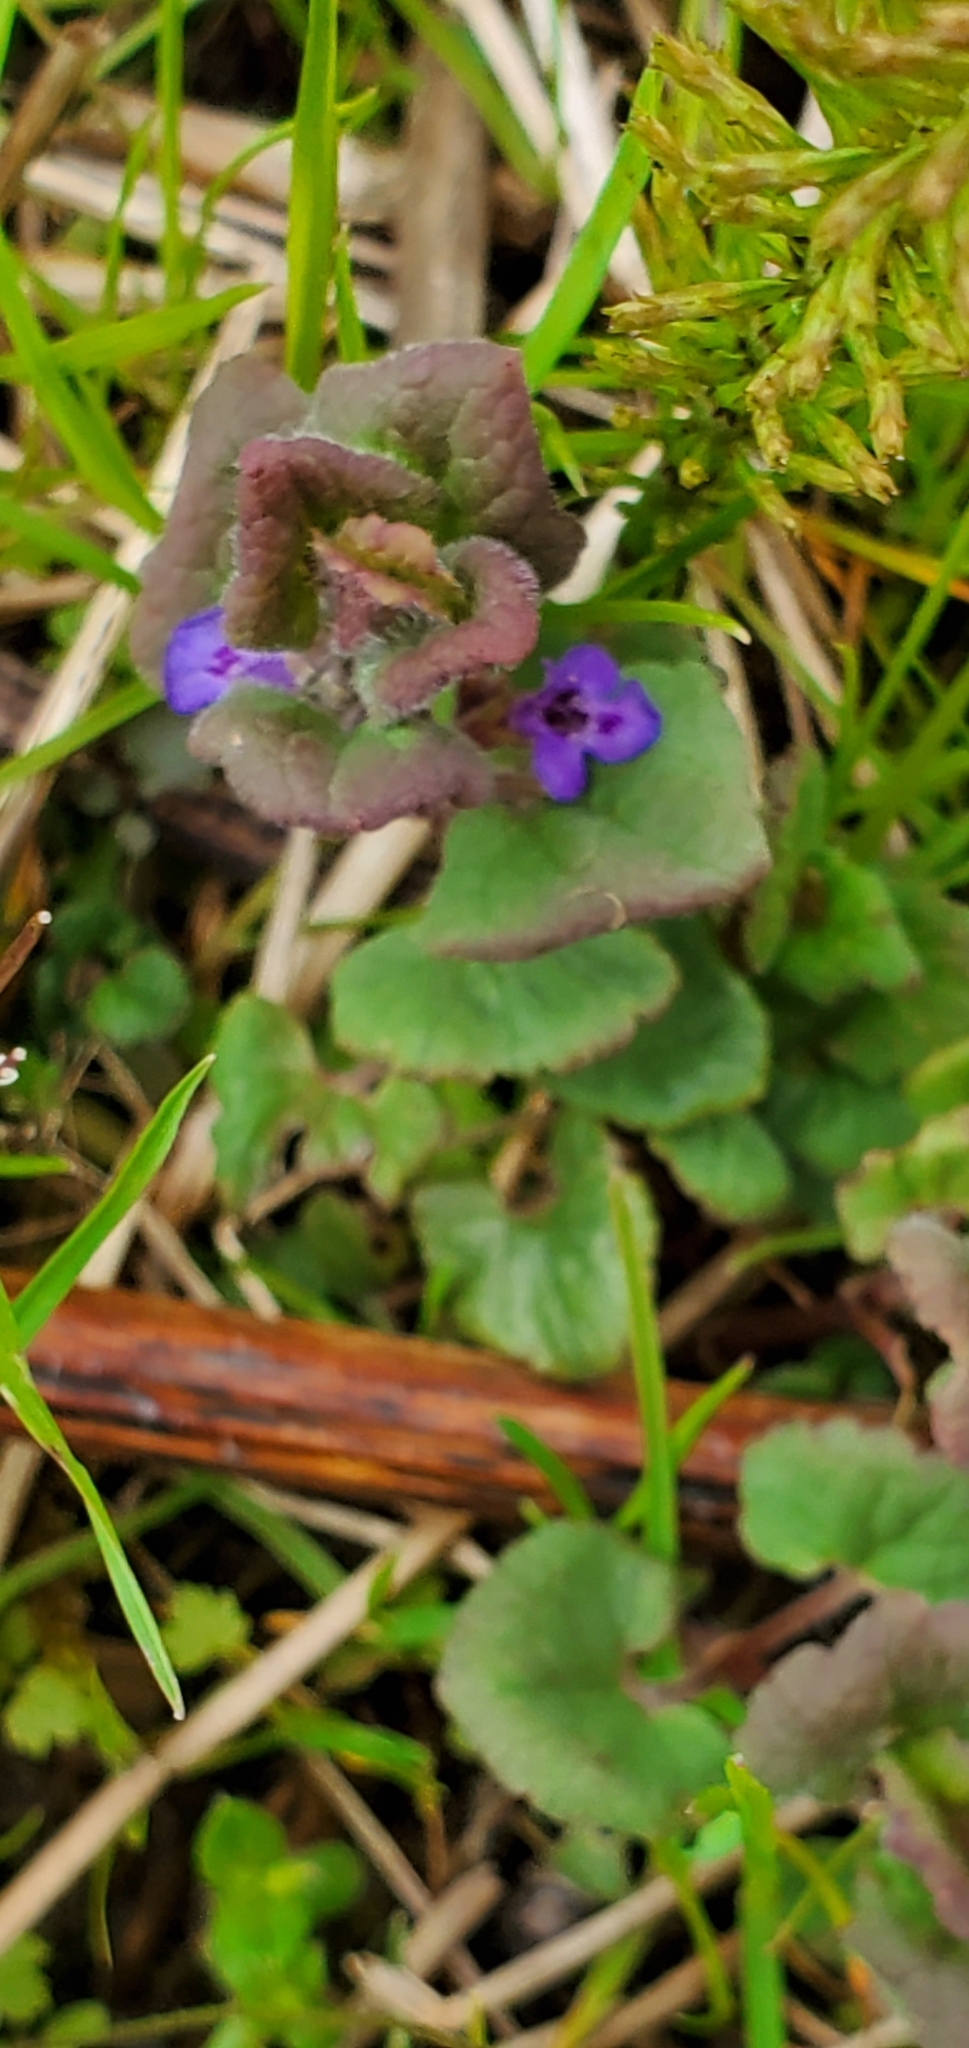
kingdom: Plantae
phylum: Tracheophyta
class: Magnoliopsida
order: Lamiales
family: Lamiaceae
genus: Glechoma
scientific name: Glechoma hederacea
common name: Ground ivy
